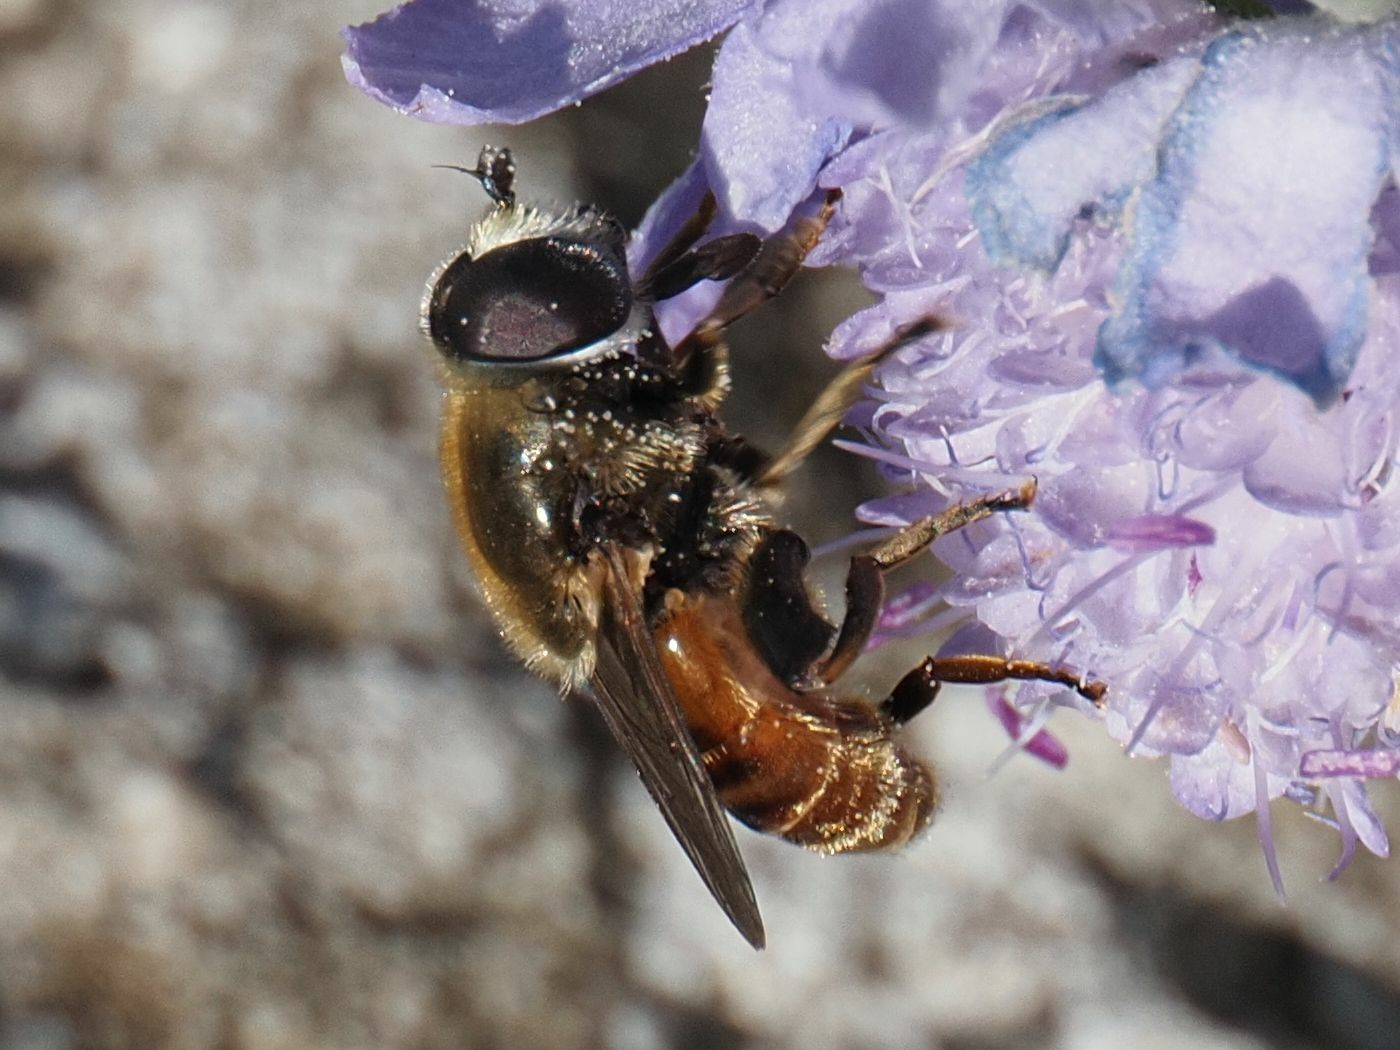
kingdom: Animalia
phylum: Arthropoda
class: Insecta
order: Diptera
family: Syrphidae
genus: Merodon
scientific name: Merodon albifrons
